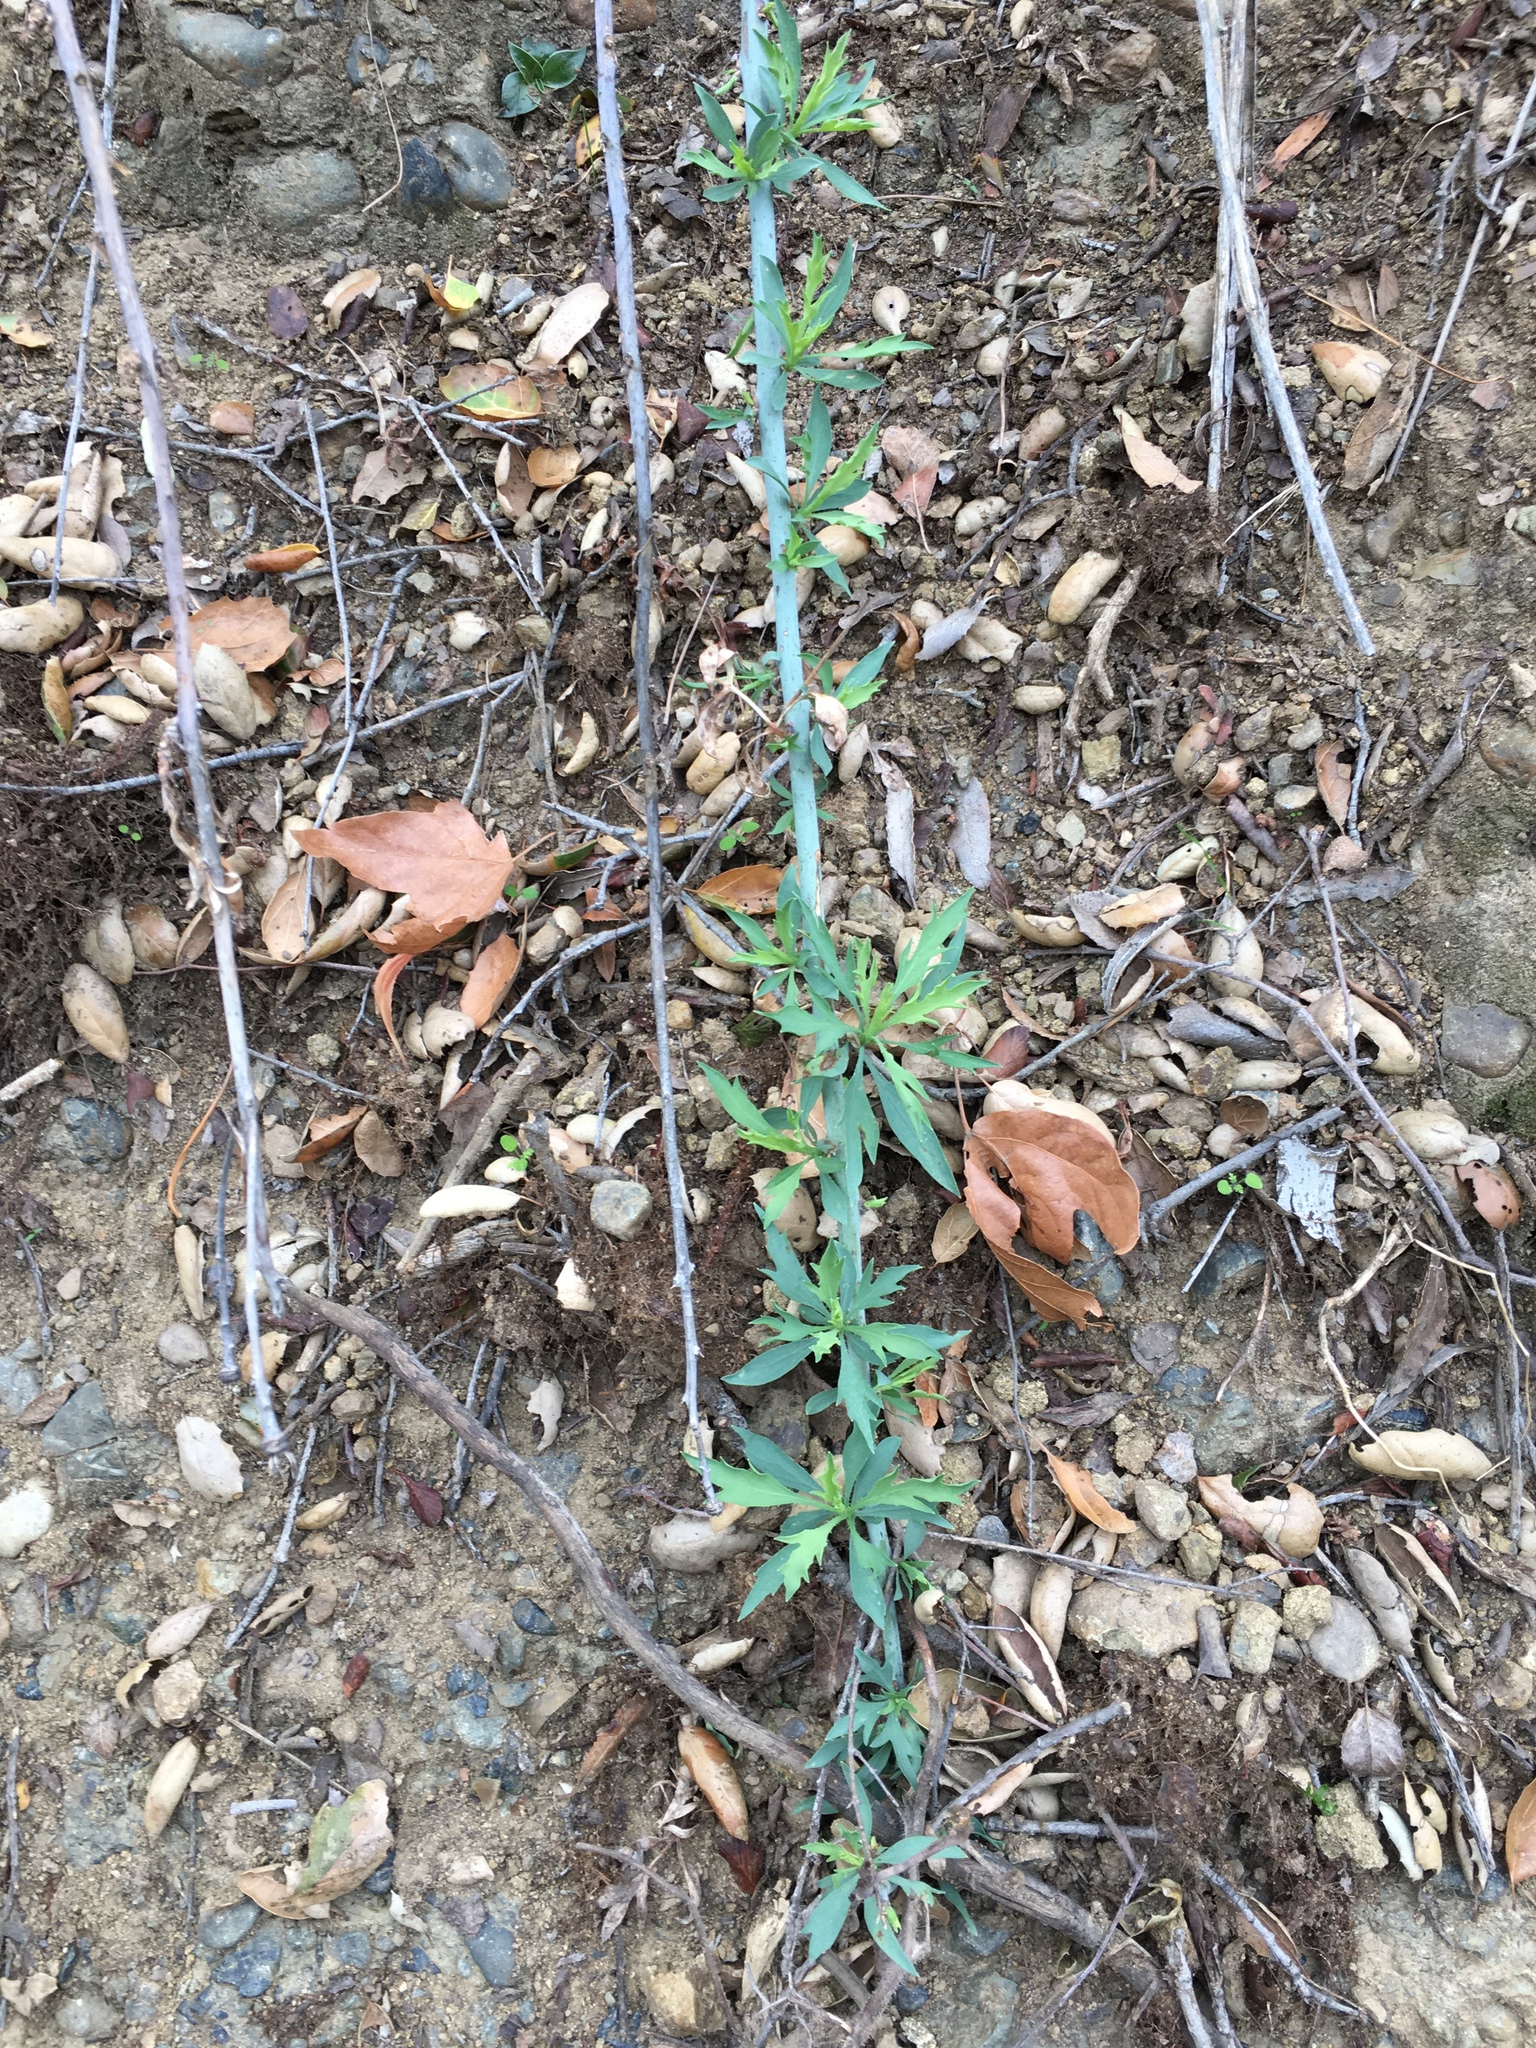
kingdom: Plantae
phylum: Tracheophyta
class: Magnoliopsida
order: Ranunculales
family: Papaveraceae
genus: Romneya
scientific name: Romneya
